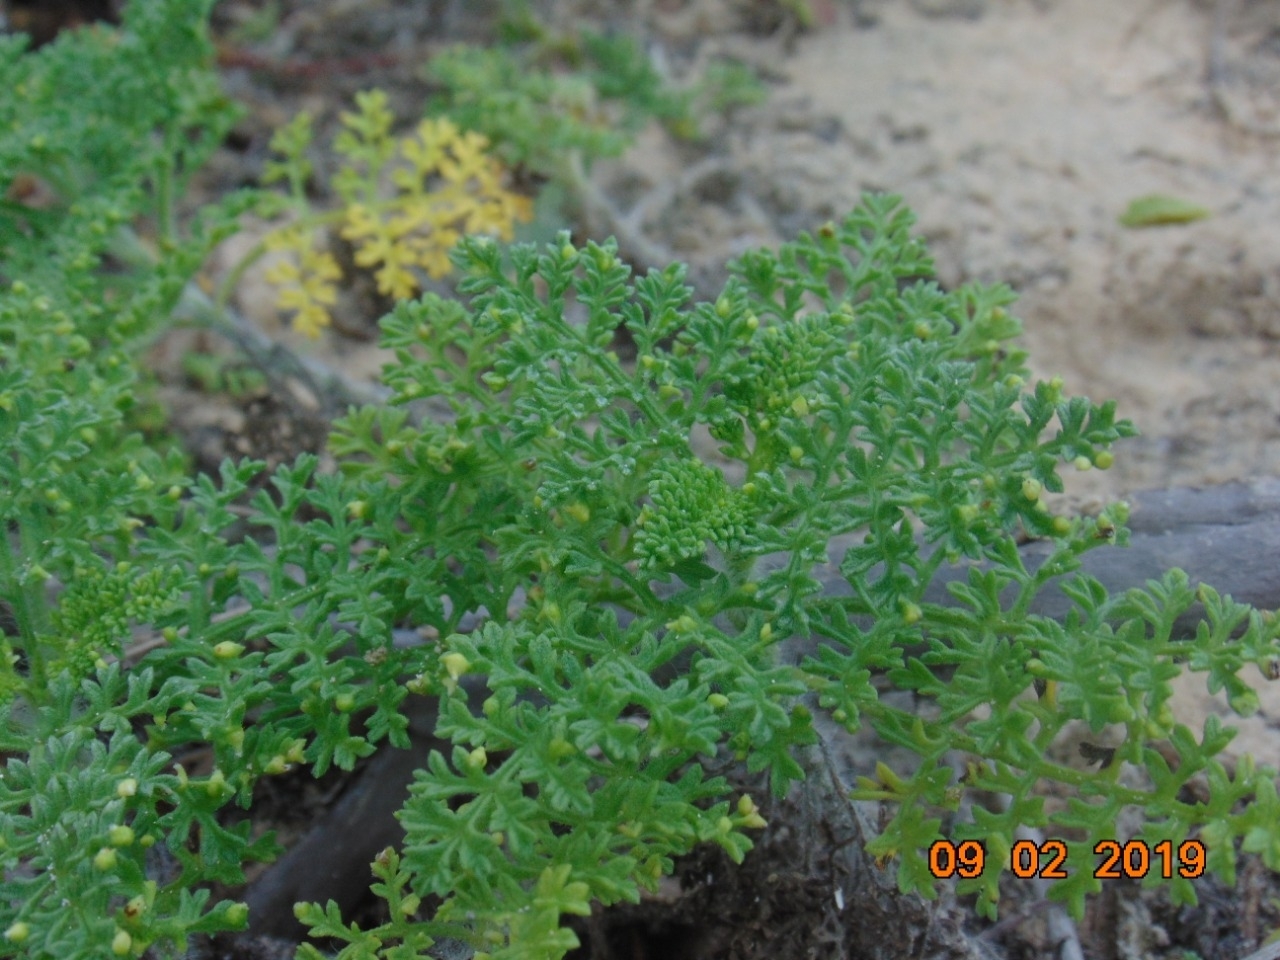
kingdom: Plantae
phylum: Tracheophyta
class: Magnoliopsida
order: Asterales
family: Asteraceae
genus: Ambrosia
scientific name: Ambrosia hispida
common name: Coastal ragweed
